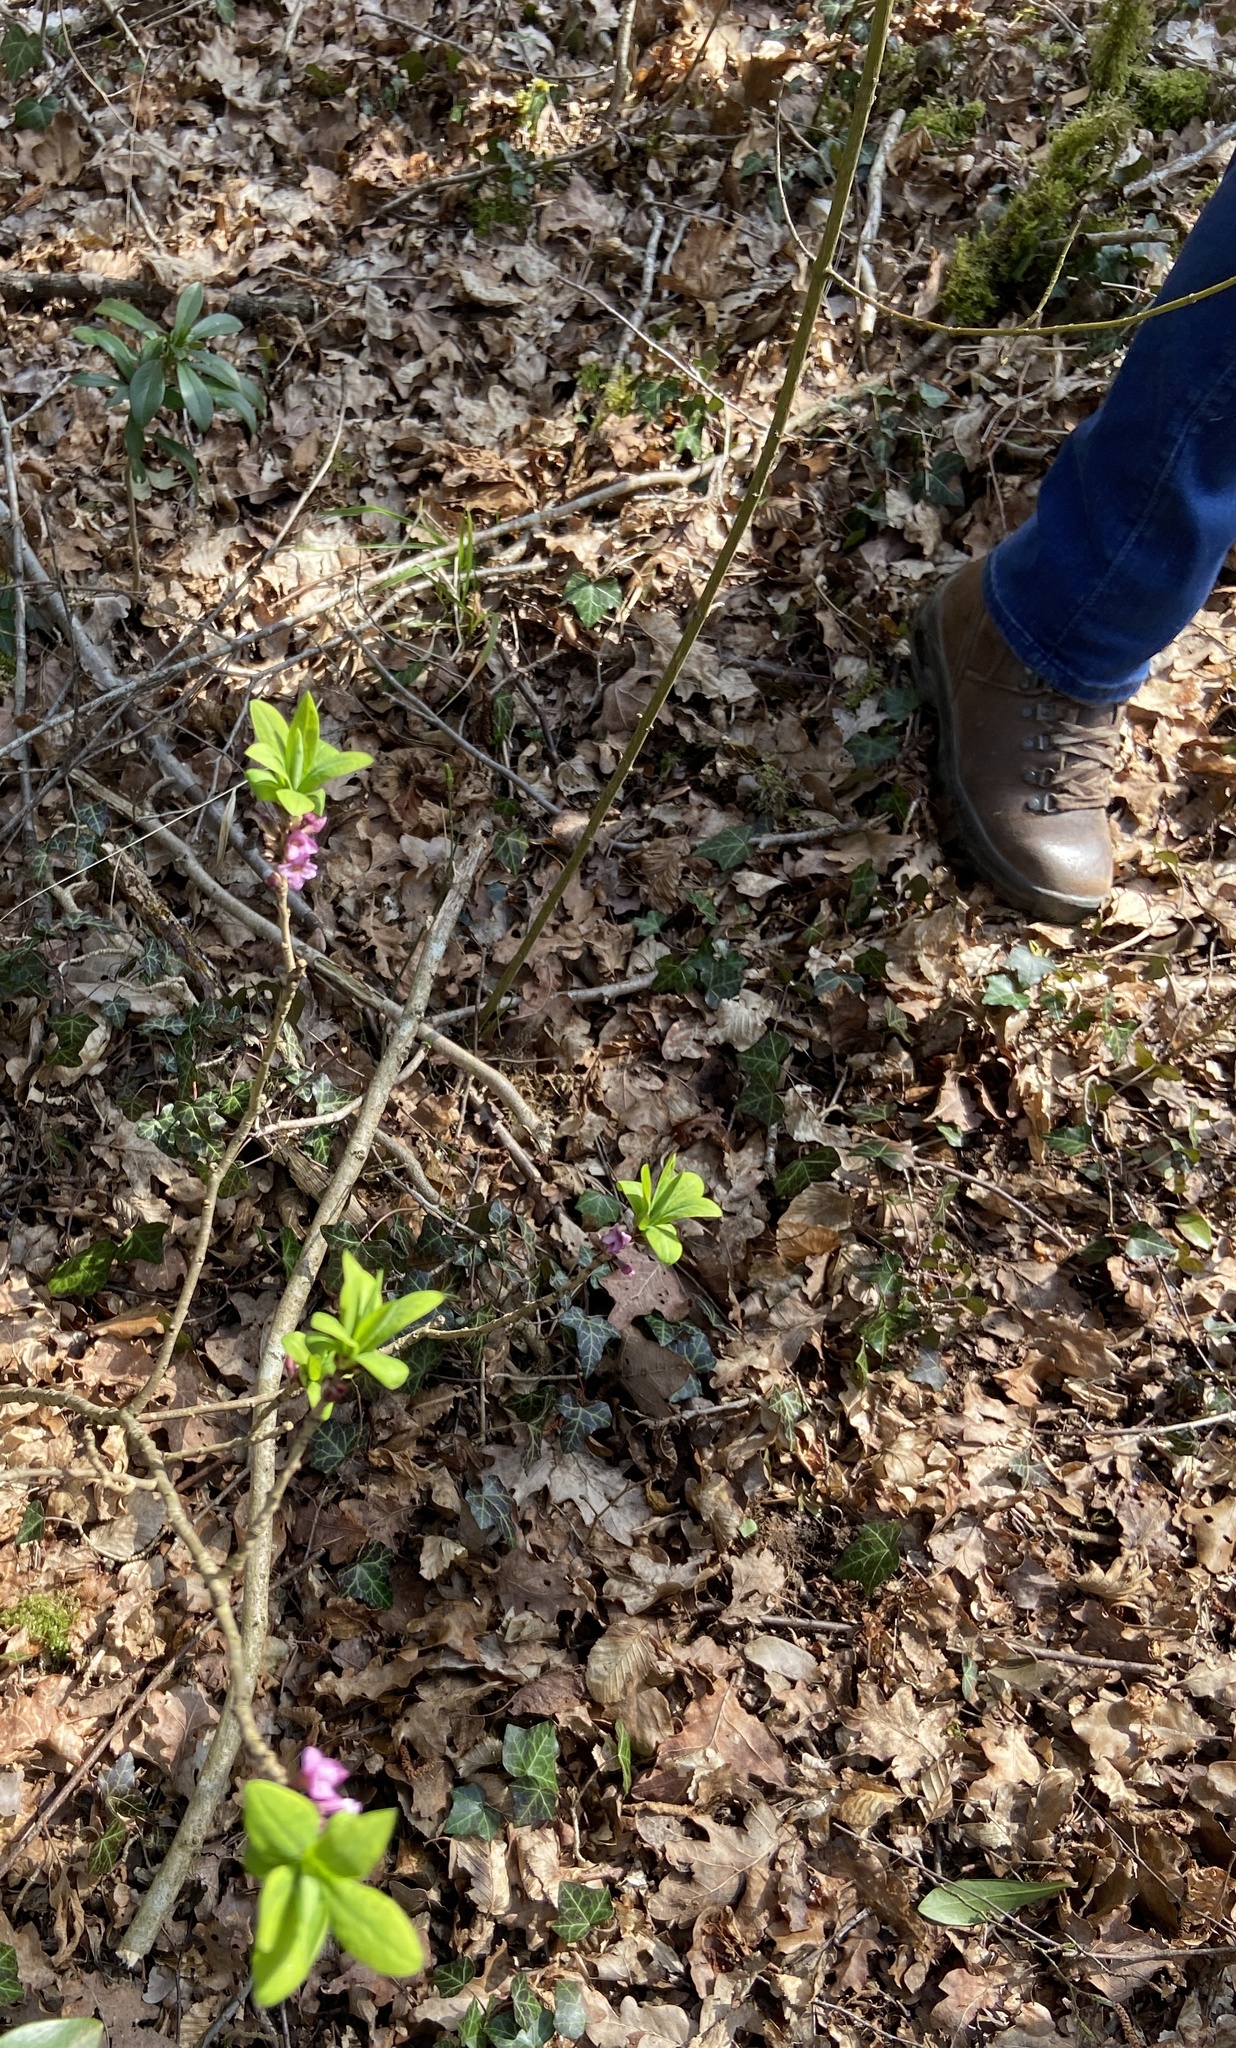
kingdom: Plantae
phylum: Tracheophyta
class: Magnoliopsida
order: Malvales
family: Thymelaeaceae
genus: Daphne
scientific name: Daphne mezereum
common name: Mezereon
